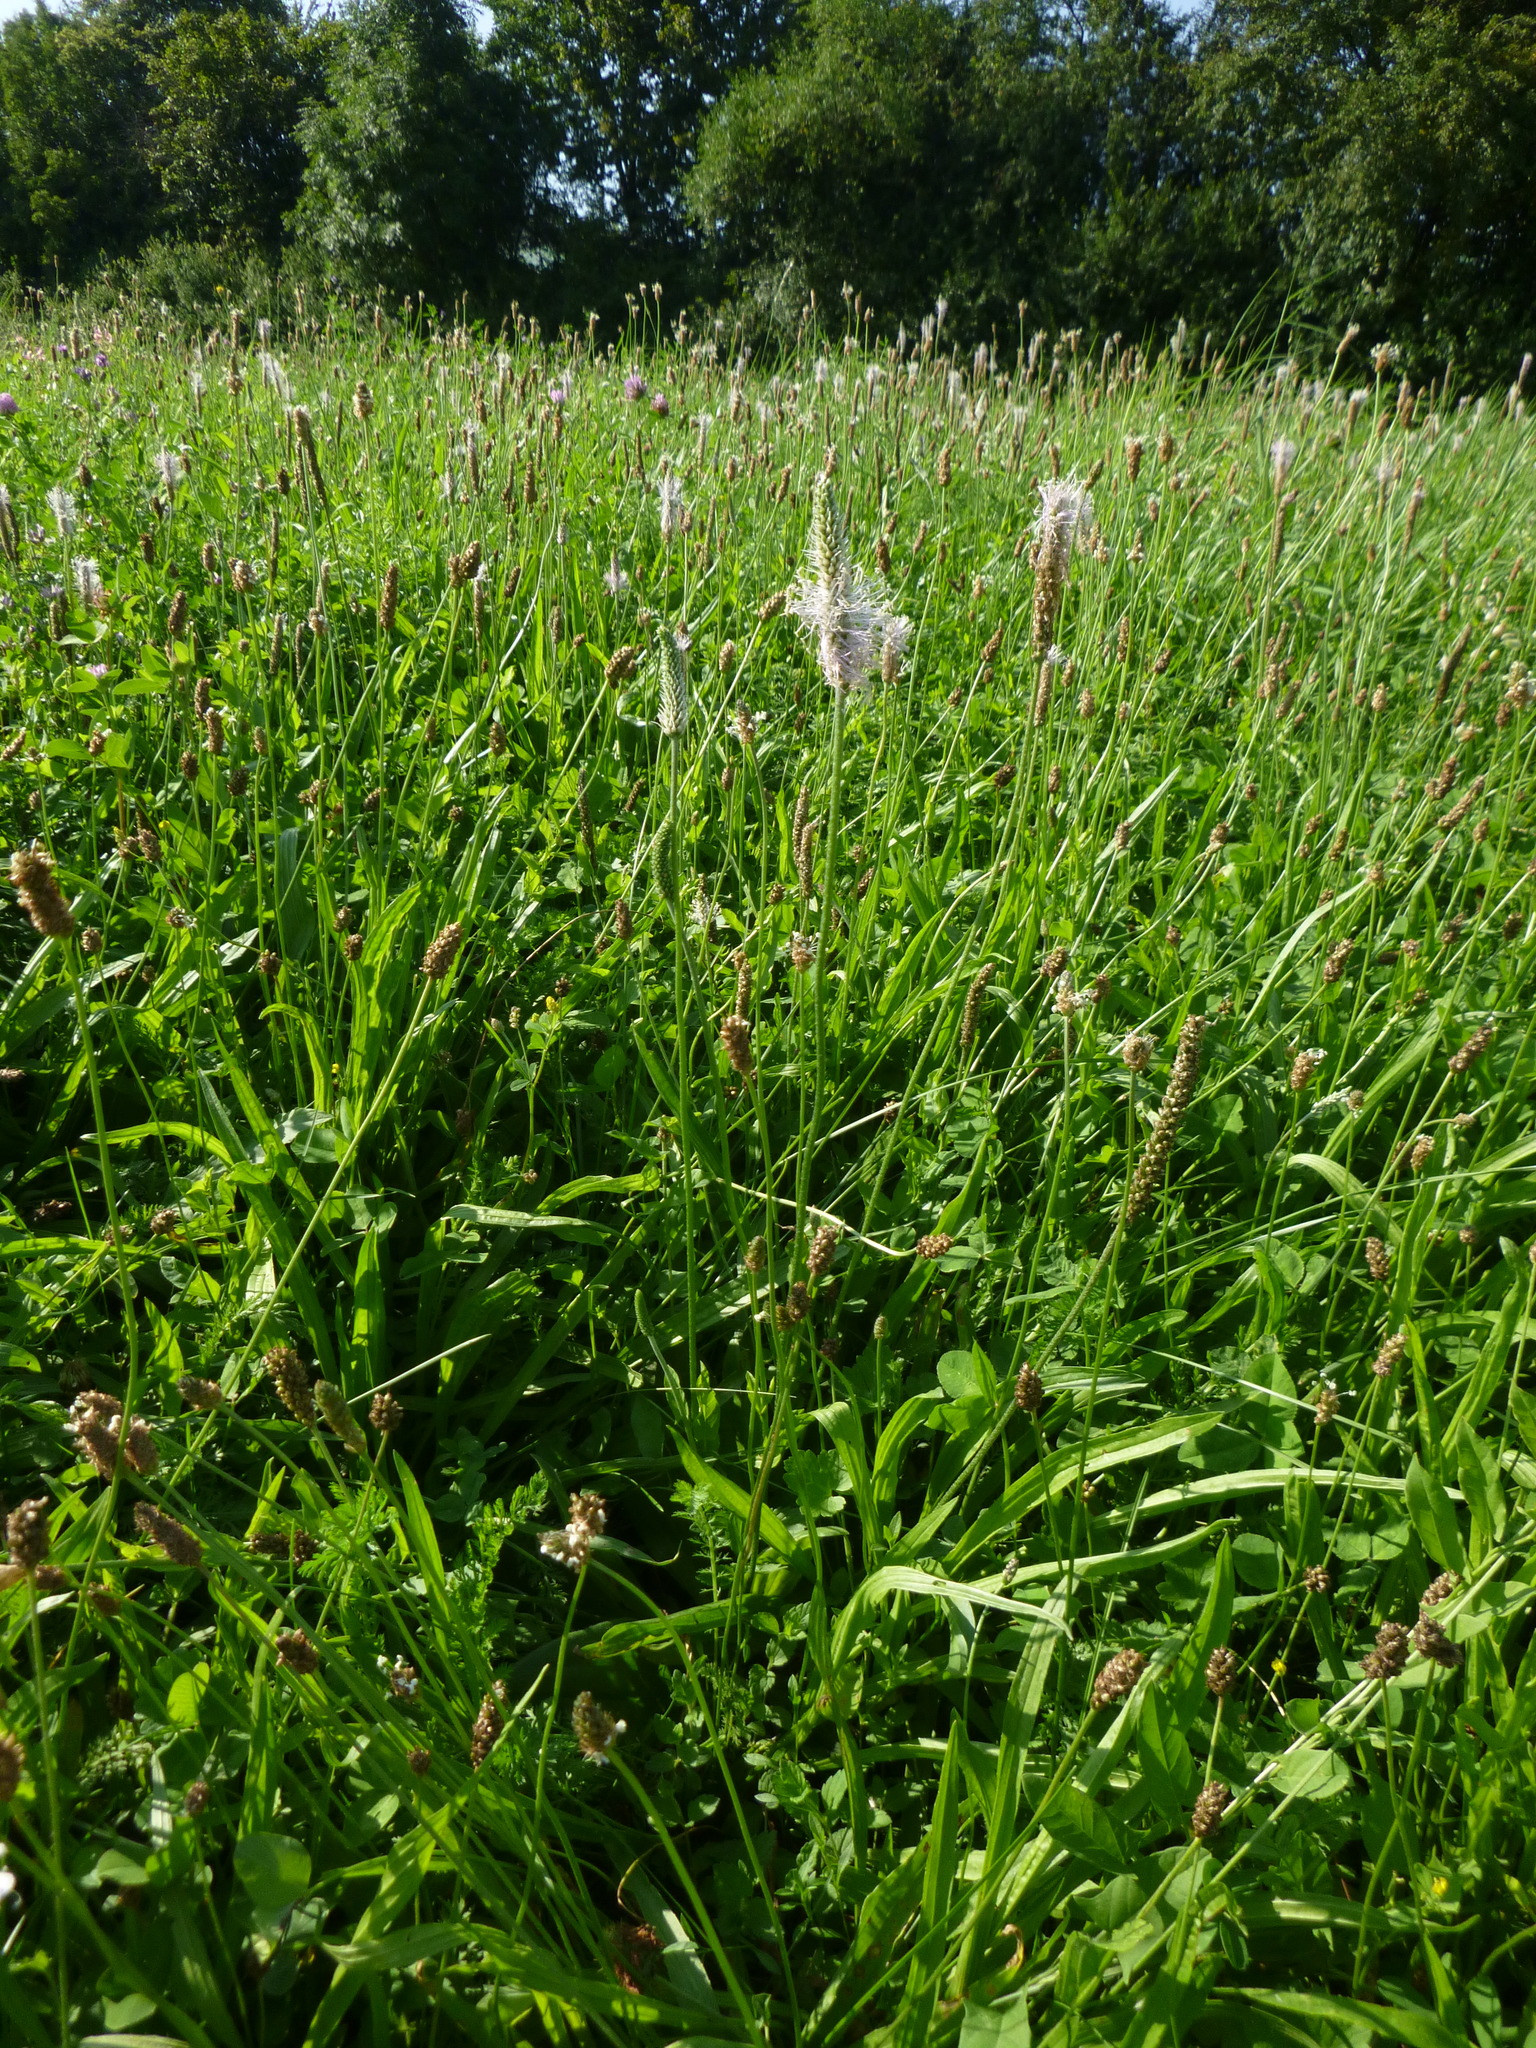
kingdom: Plantae
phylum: Tracheophyta
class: Magnoliopsida
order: Lamiales
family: Plantaginaceae
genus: Plantago
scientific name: Plantago media
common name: Hoary plantain
